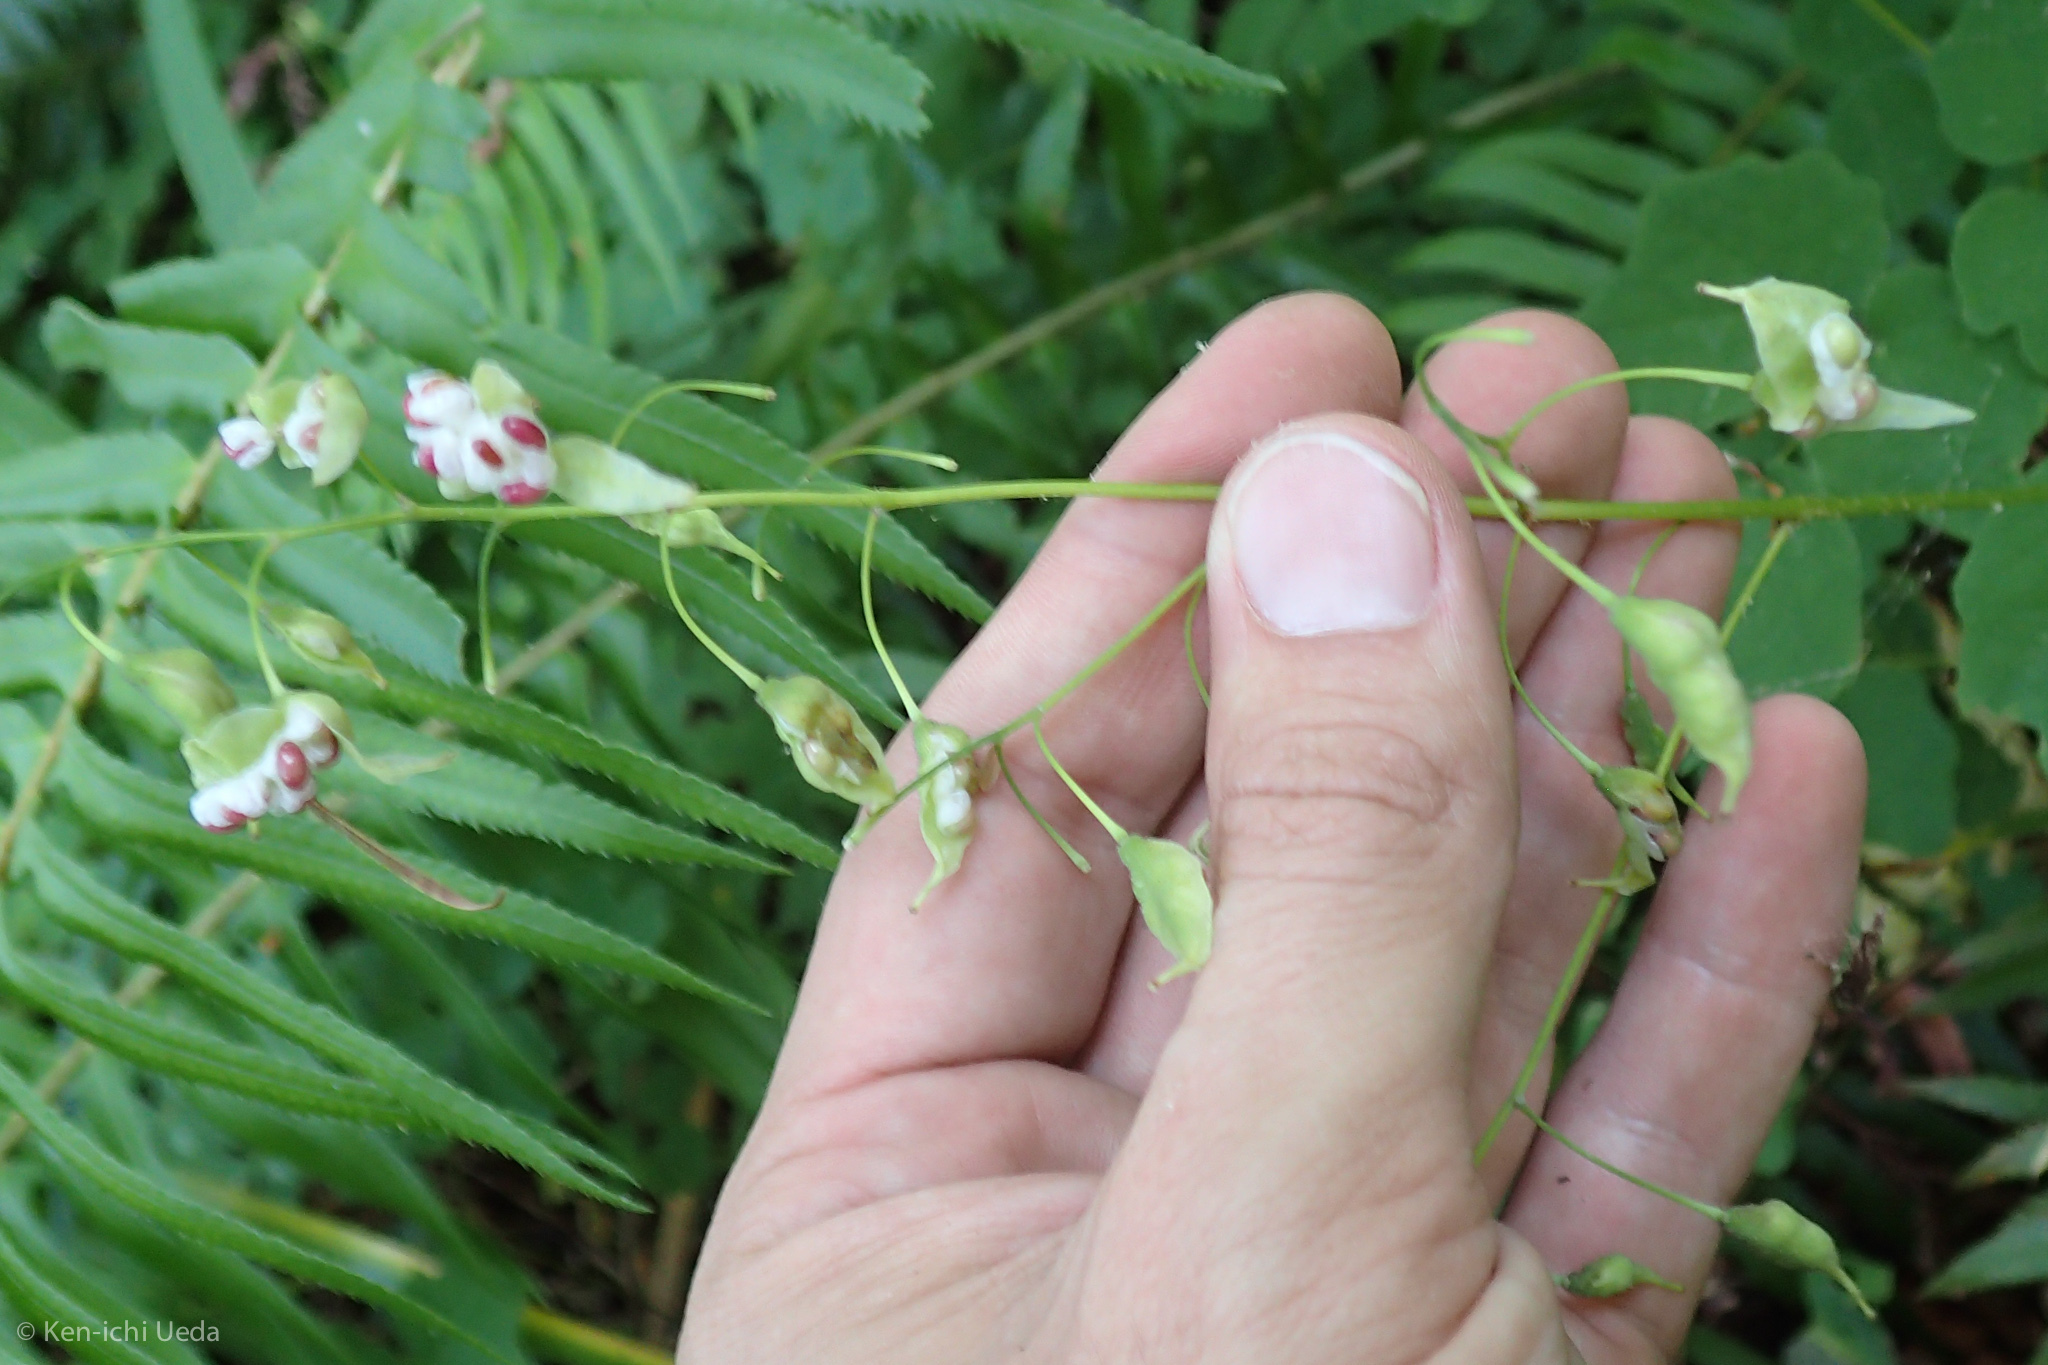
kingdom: Plantae
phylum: Tracheophyta
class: Magnoliopsida
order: Ranunculales
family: Berberidaceae
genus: Vancouveria
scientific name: Vancouveria hexandra
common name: Northern inside-out-flower
